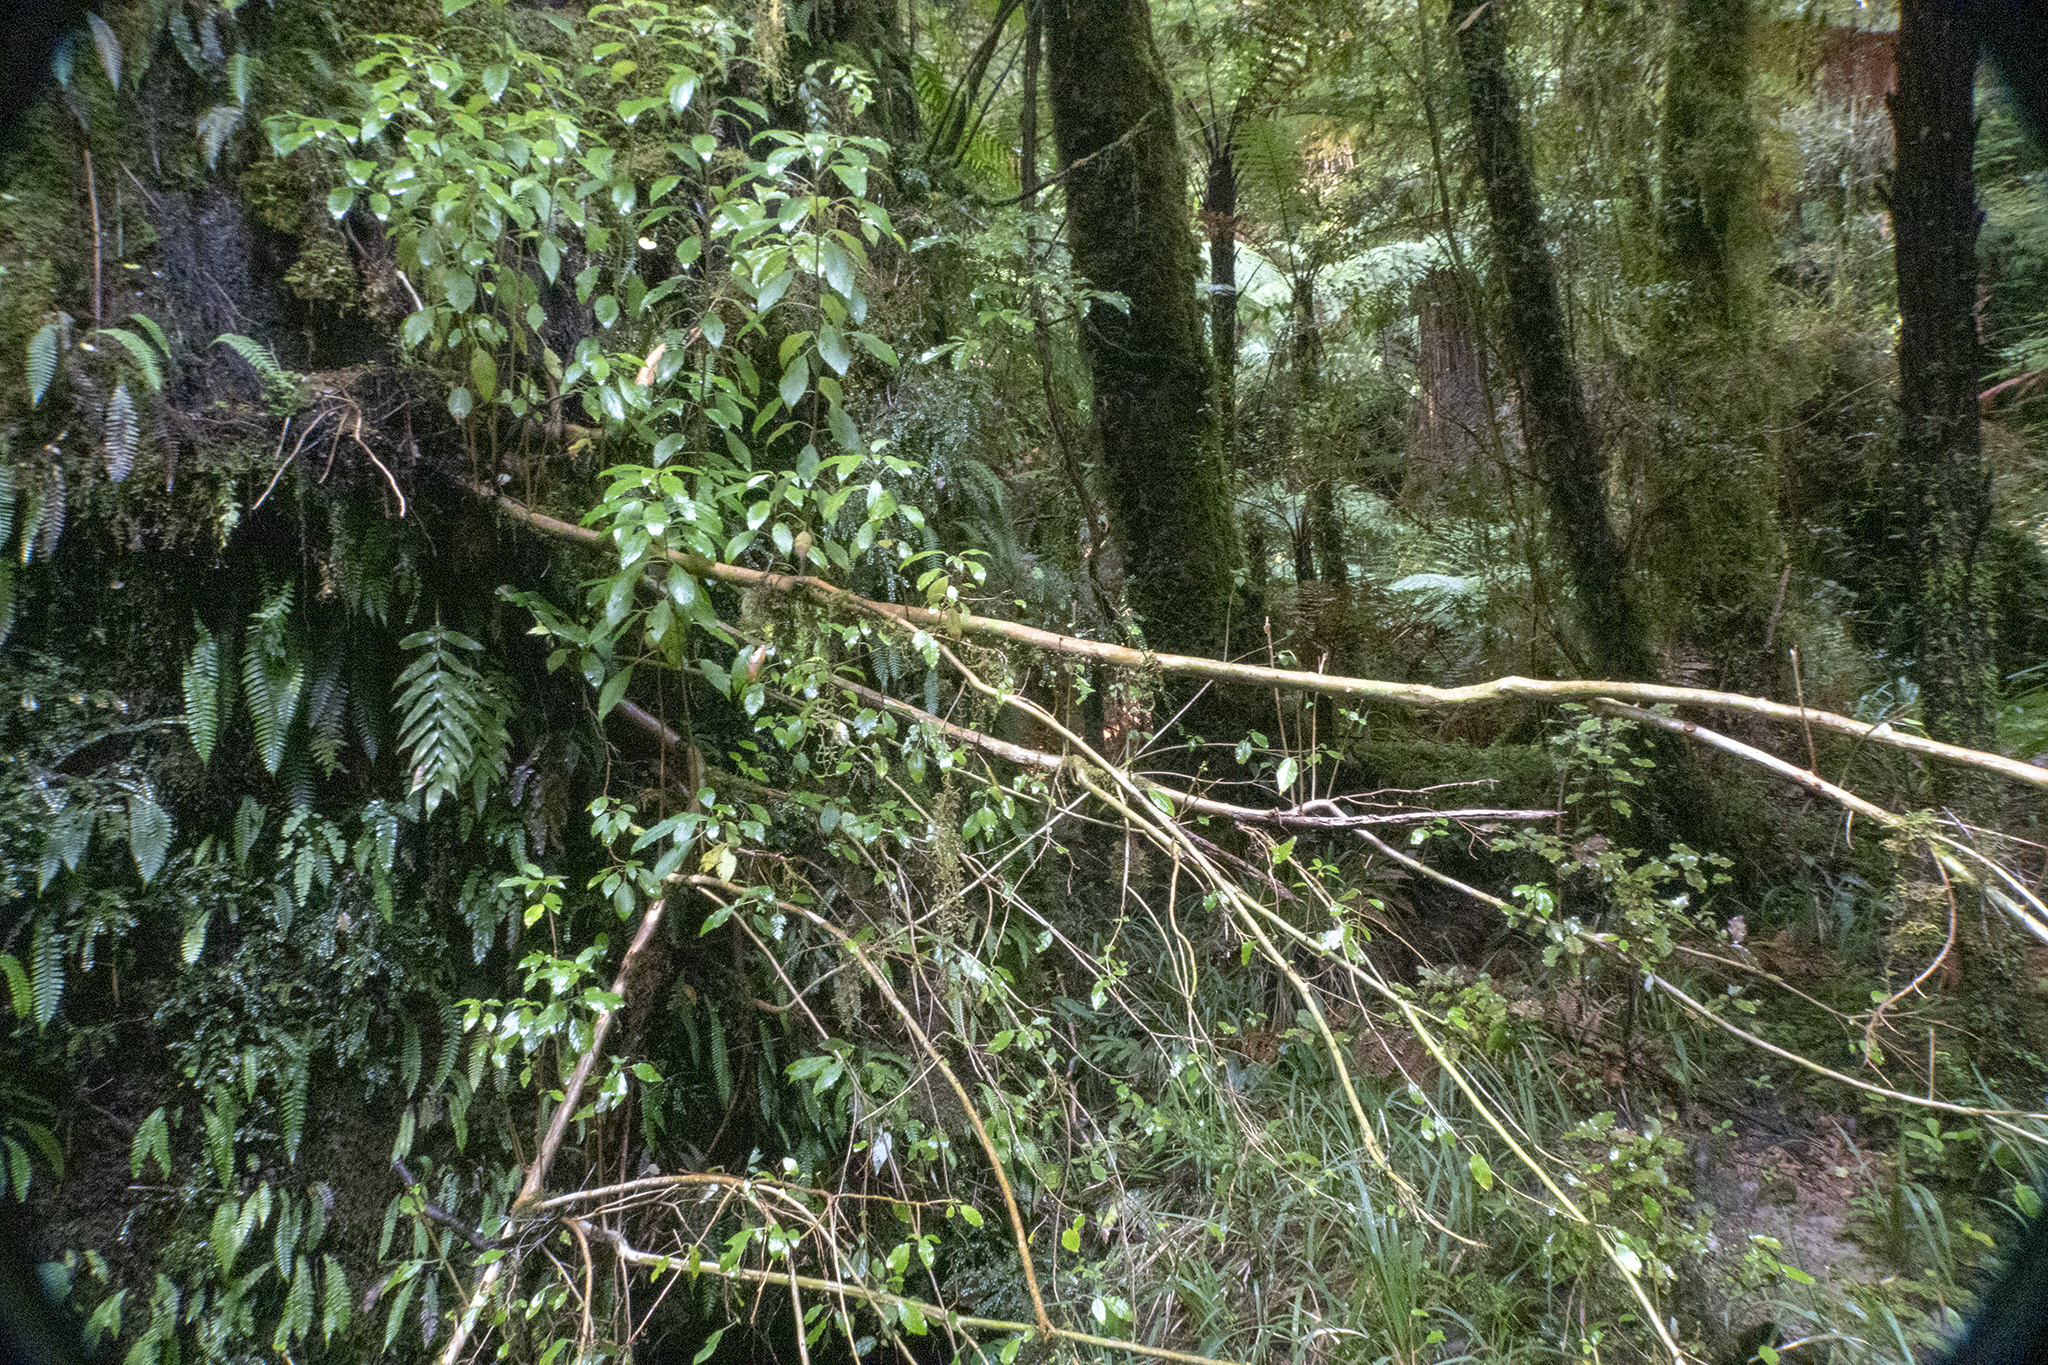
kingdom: Plantae
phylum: Tracheophyta
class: Magnoliopsida
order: Myrtales
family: Onagraceae
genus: Fuchsia
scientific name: Fuchsia excorticata
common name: Tree fuchsia
